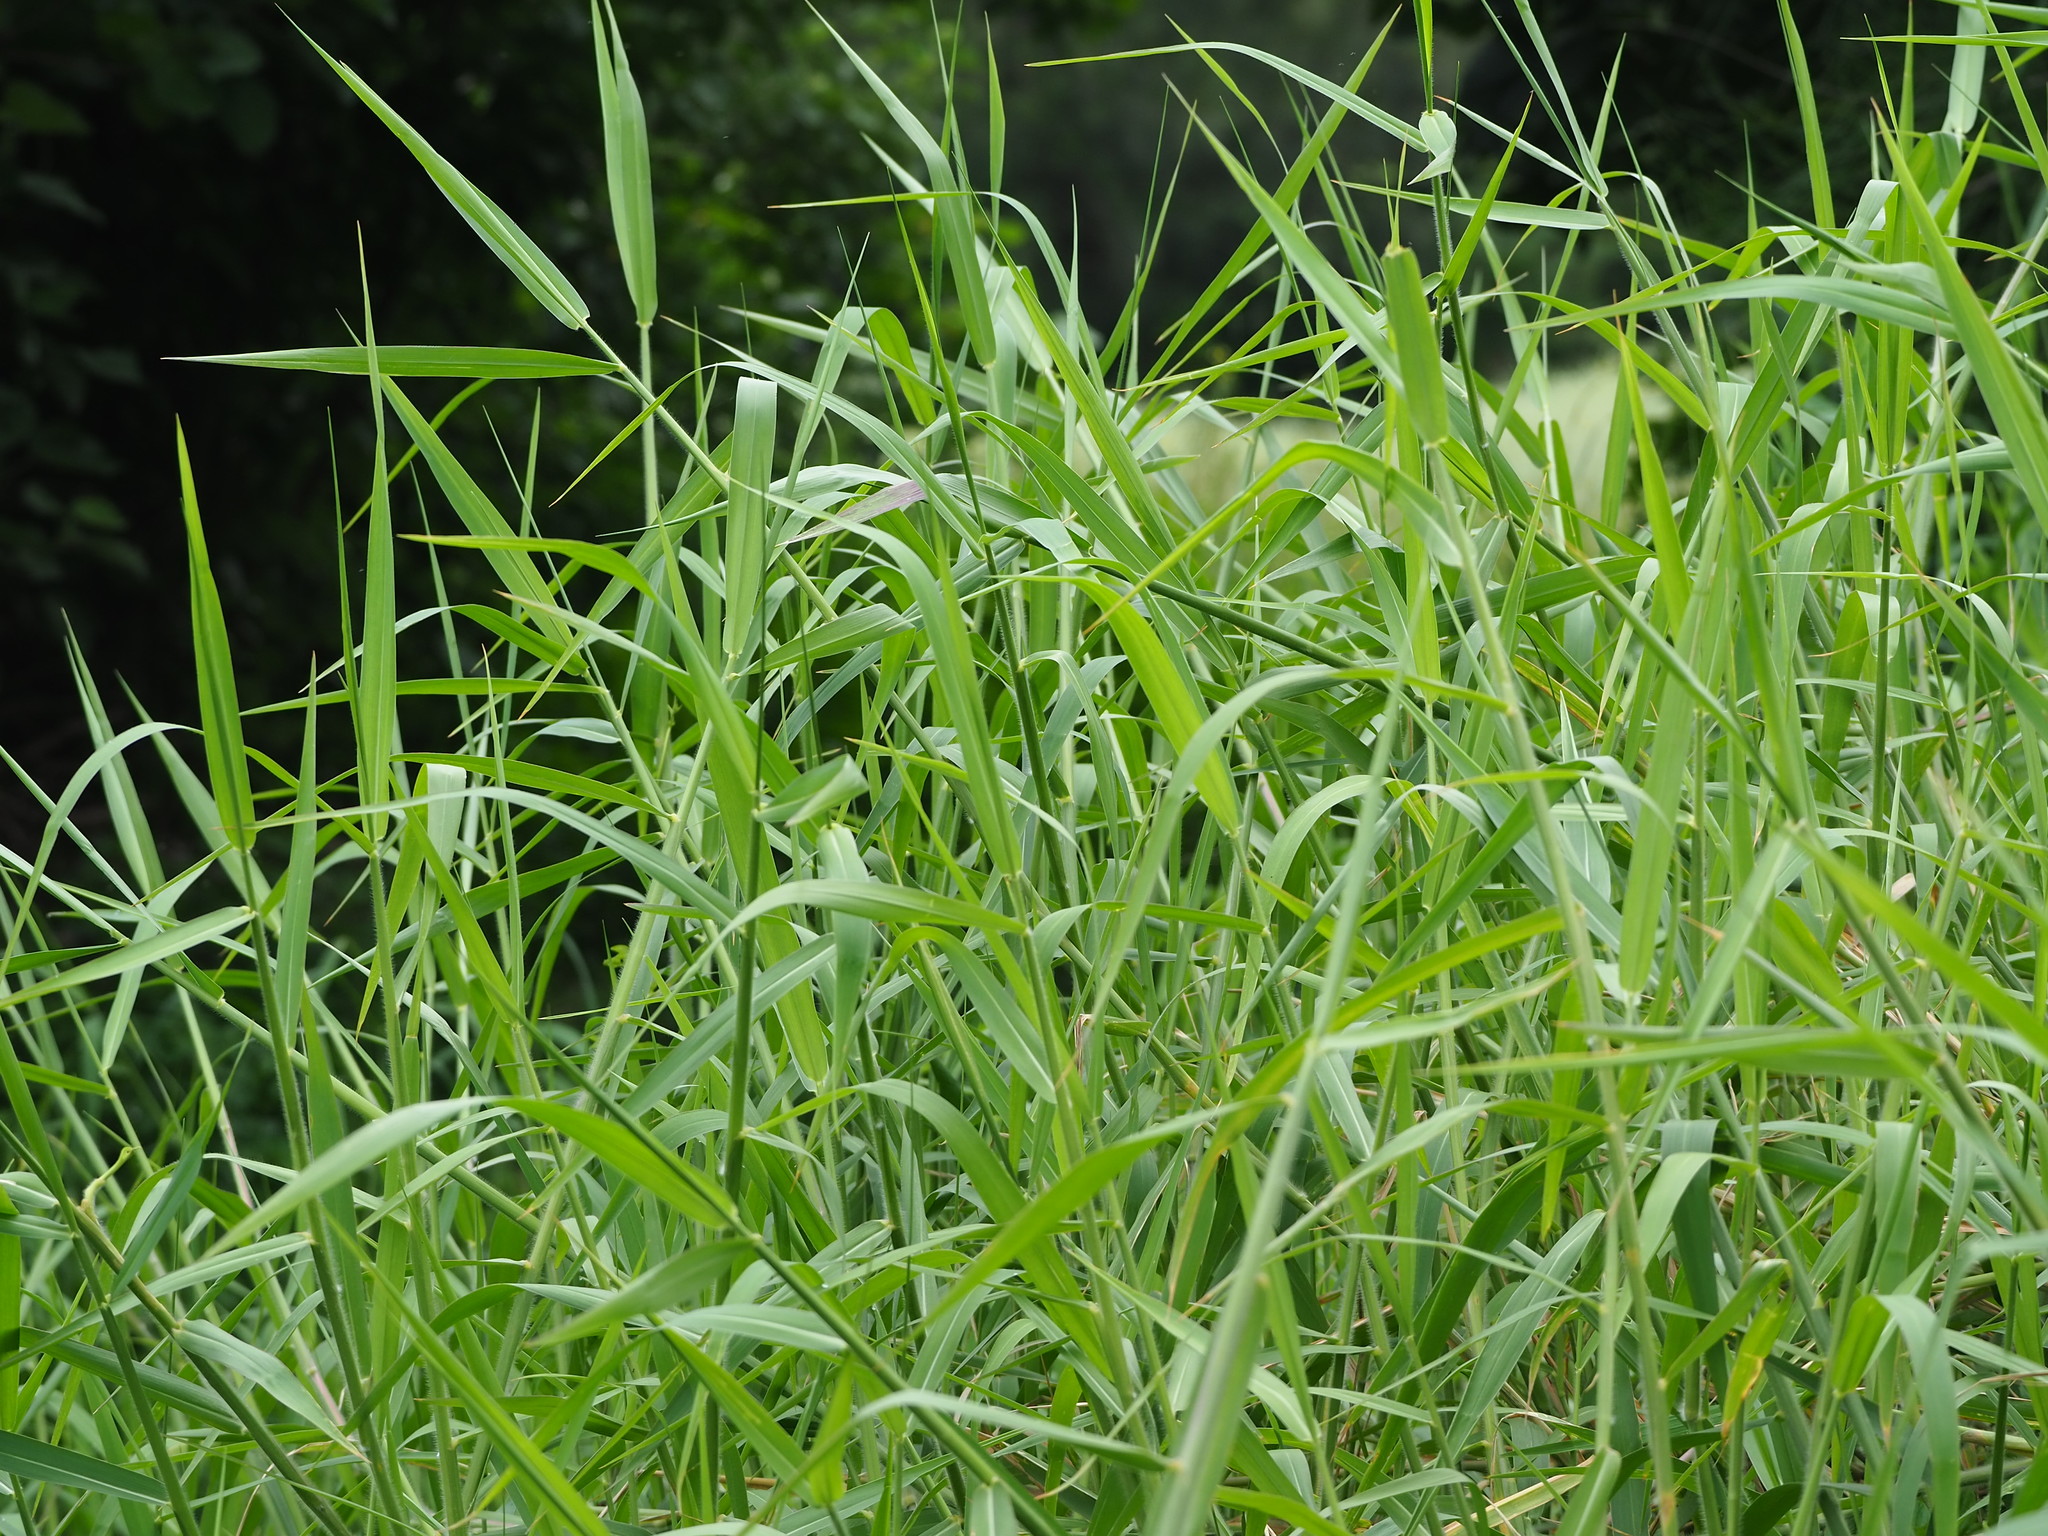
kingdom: Plantae
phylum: Tracheophyta
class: Liliopsida
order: Poales
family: Poaceae
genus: Urochloa
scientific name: Urochloa mutica
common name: Para grass
